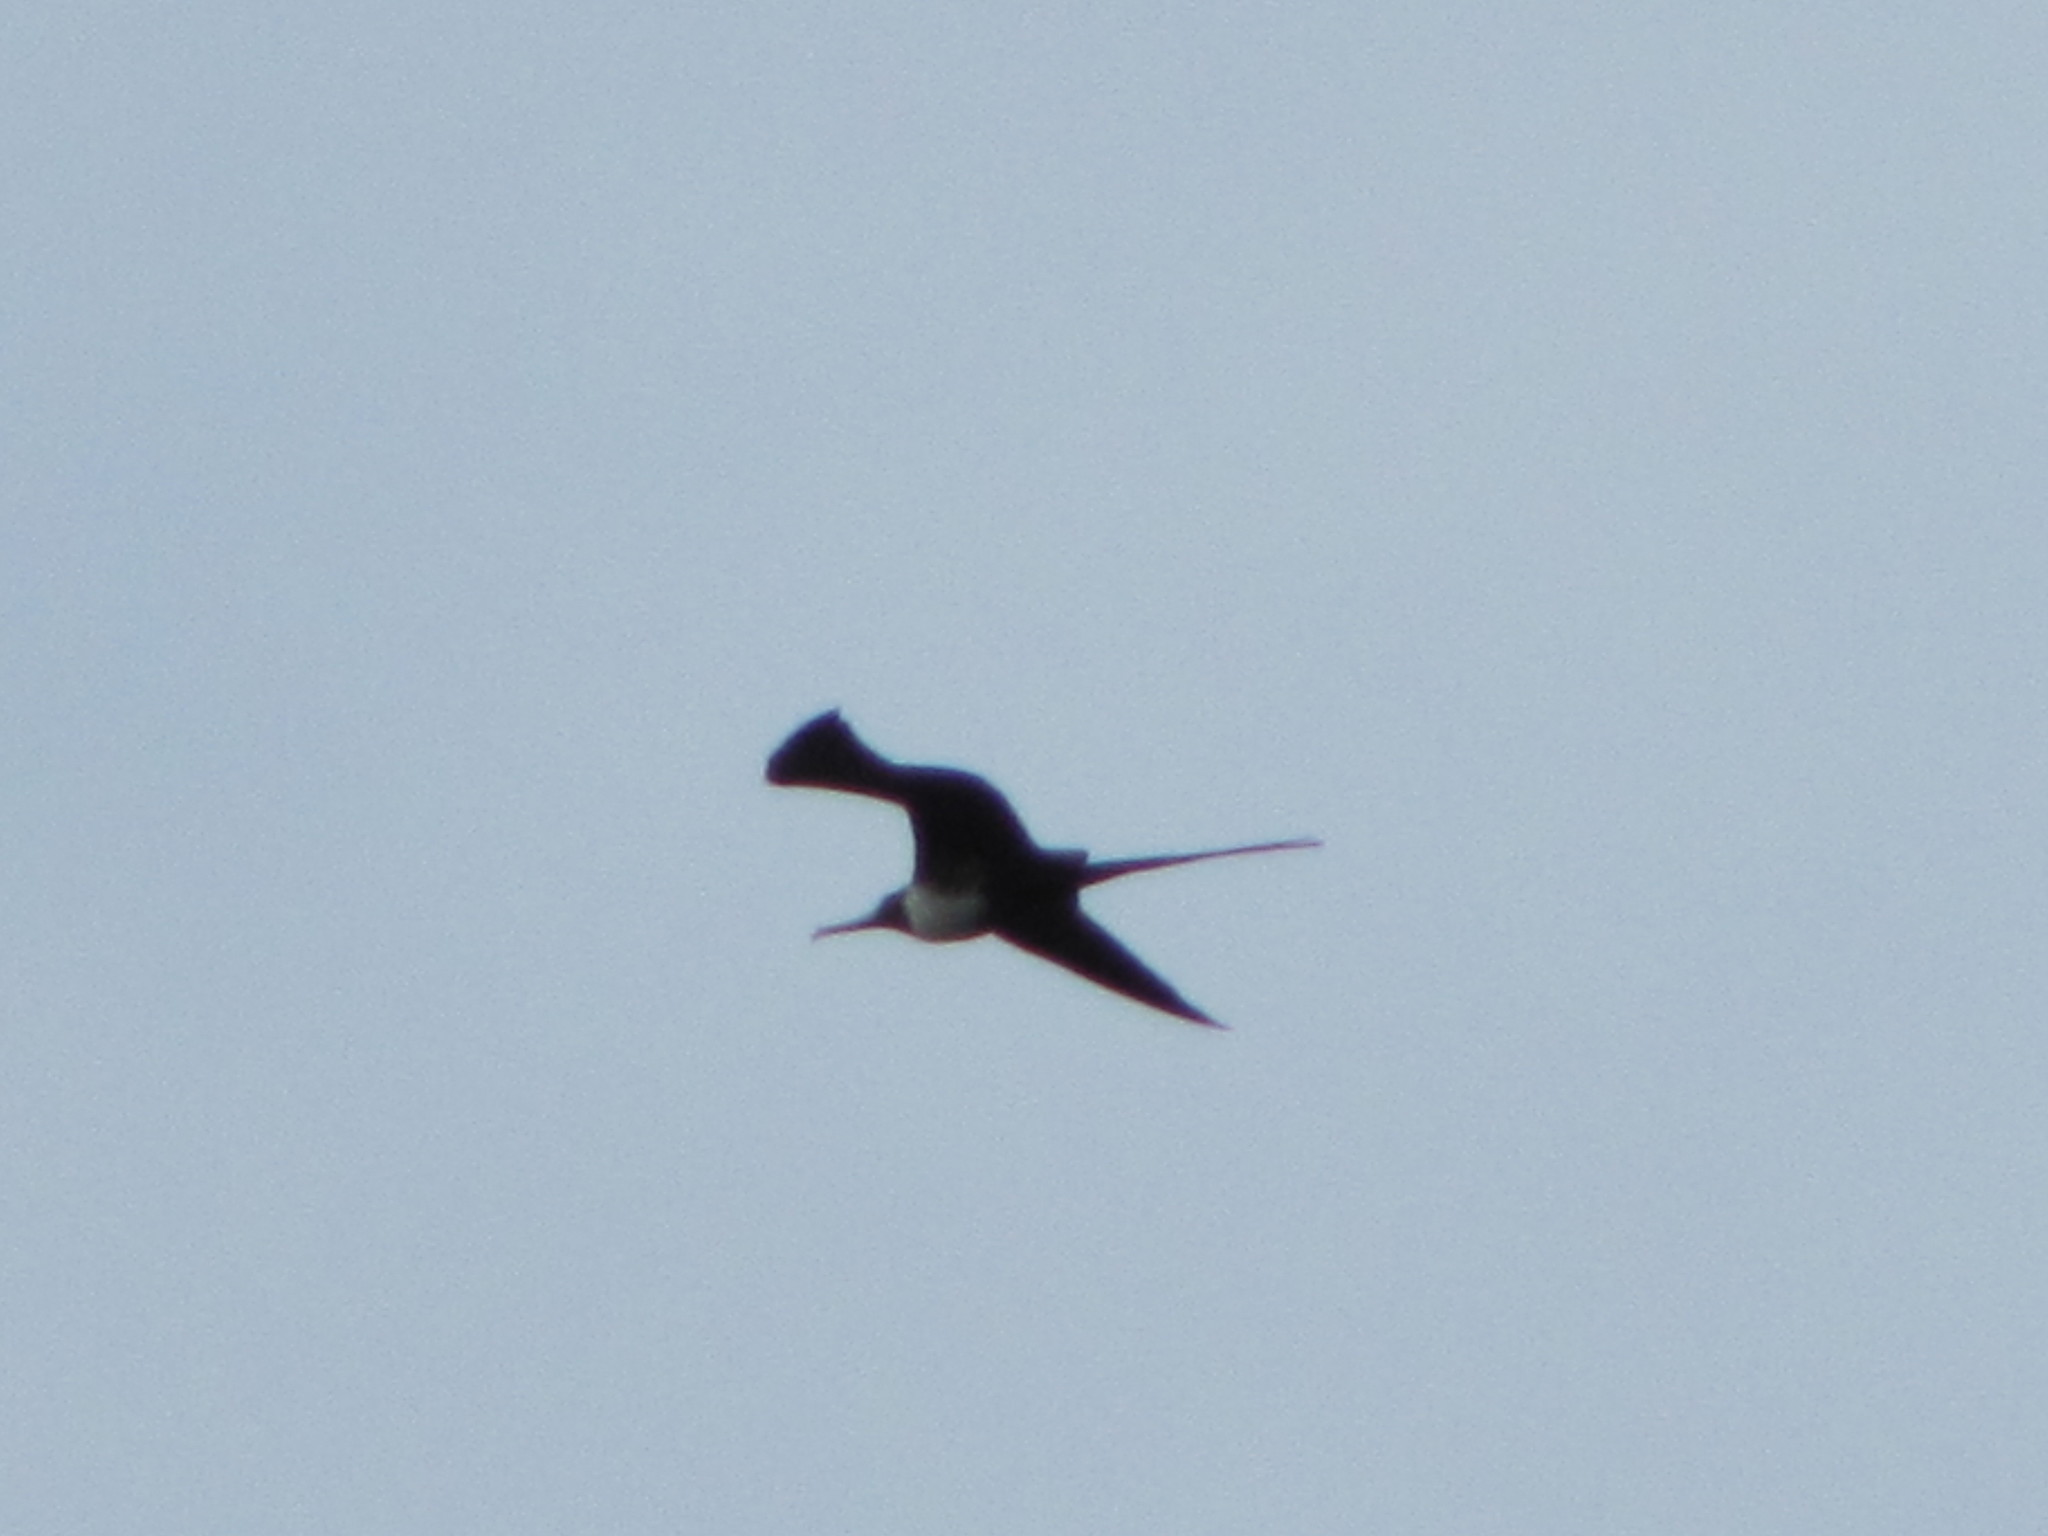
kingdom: Animalia
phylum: Chordata
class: Aves
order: Suliformes
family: Fregatidae
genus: Fregata
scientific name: Fregata magnificens
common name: Magnificent frigatebird
